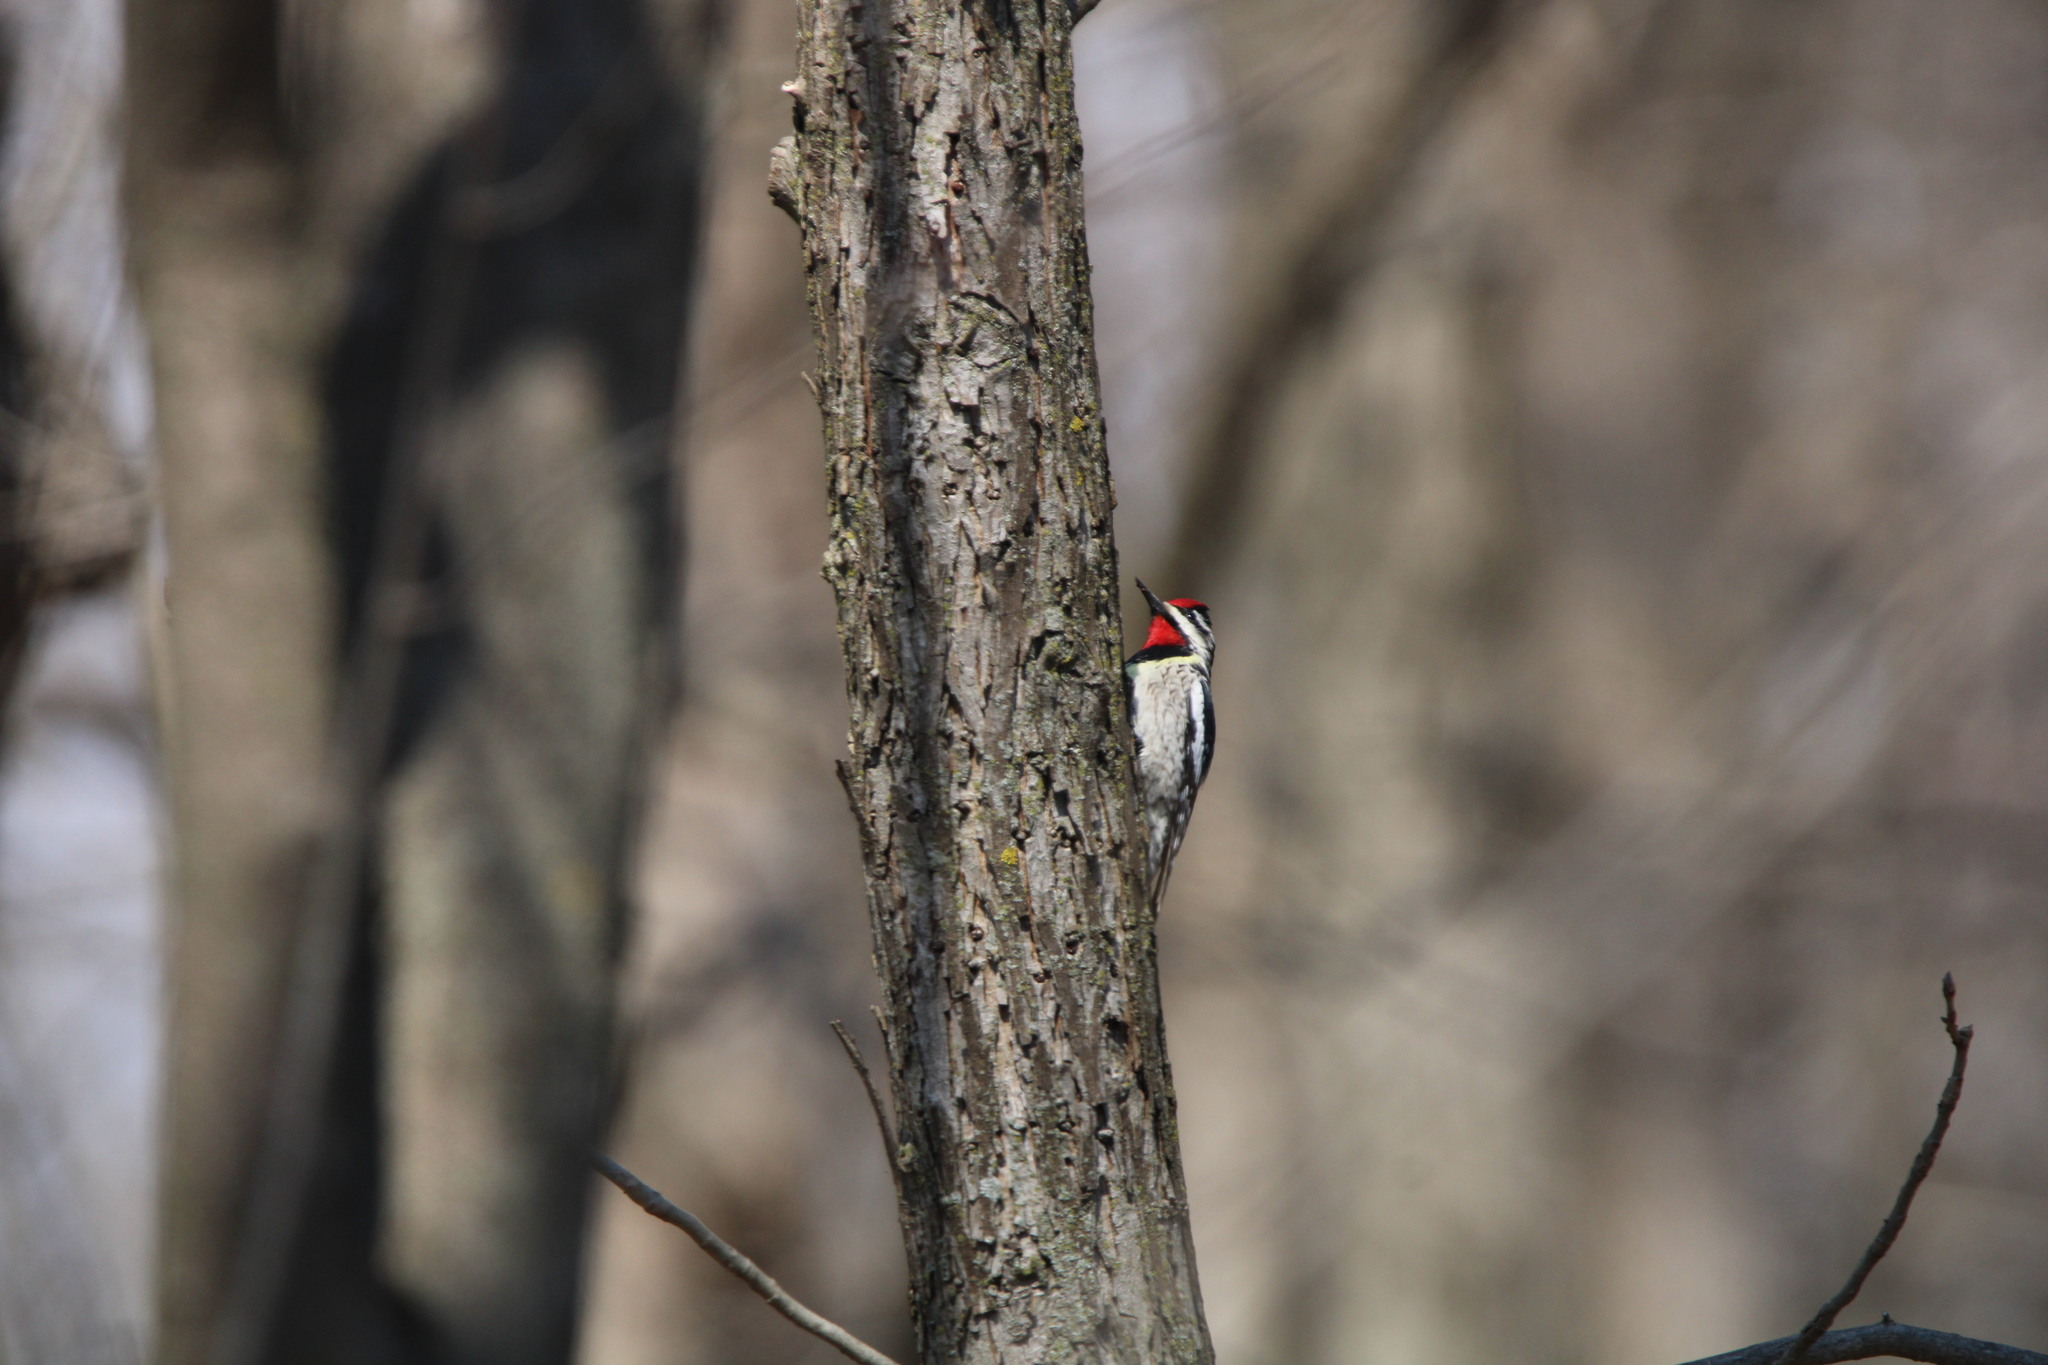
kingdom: Animalia
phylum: Chordata
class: Aves
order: Piciformes
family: Picidae
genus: Sphyrapicus
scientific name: Sphyrapicus varius
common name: Yellow-bellied sapsucker
